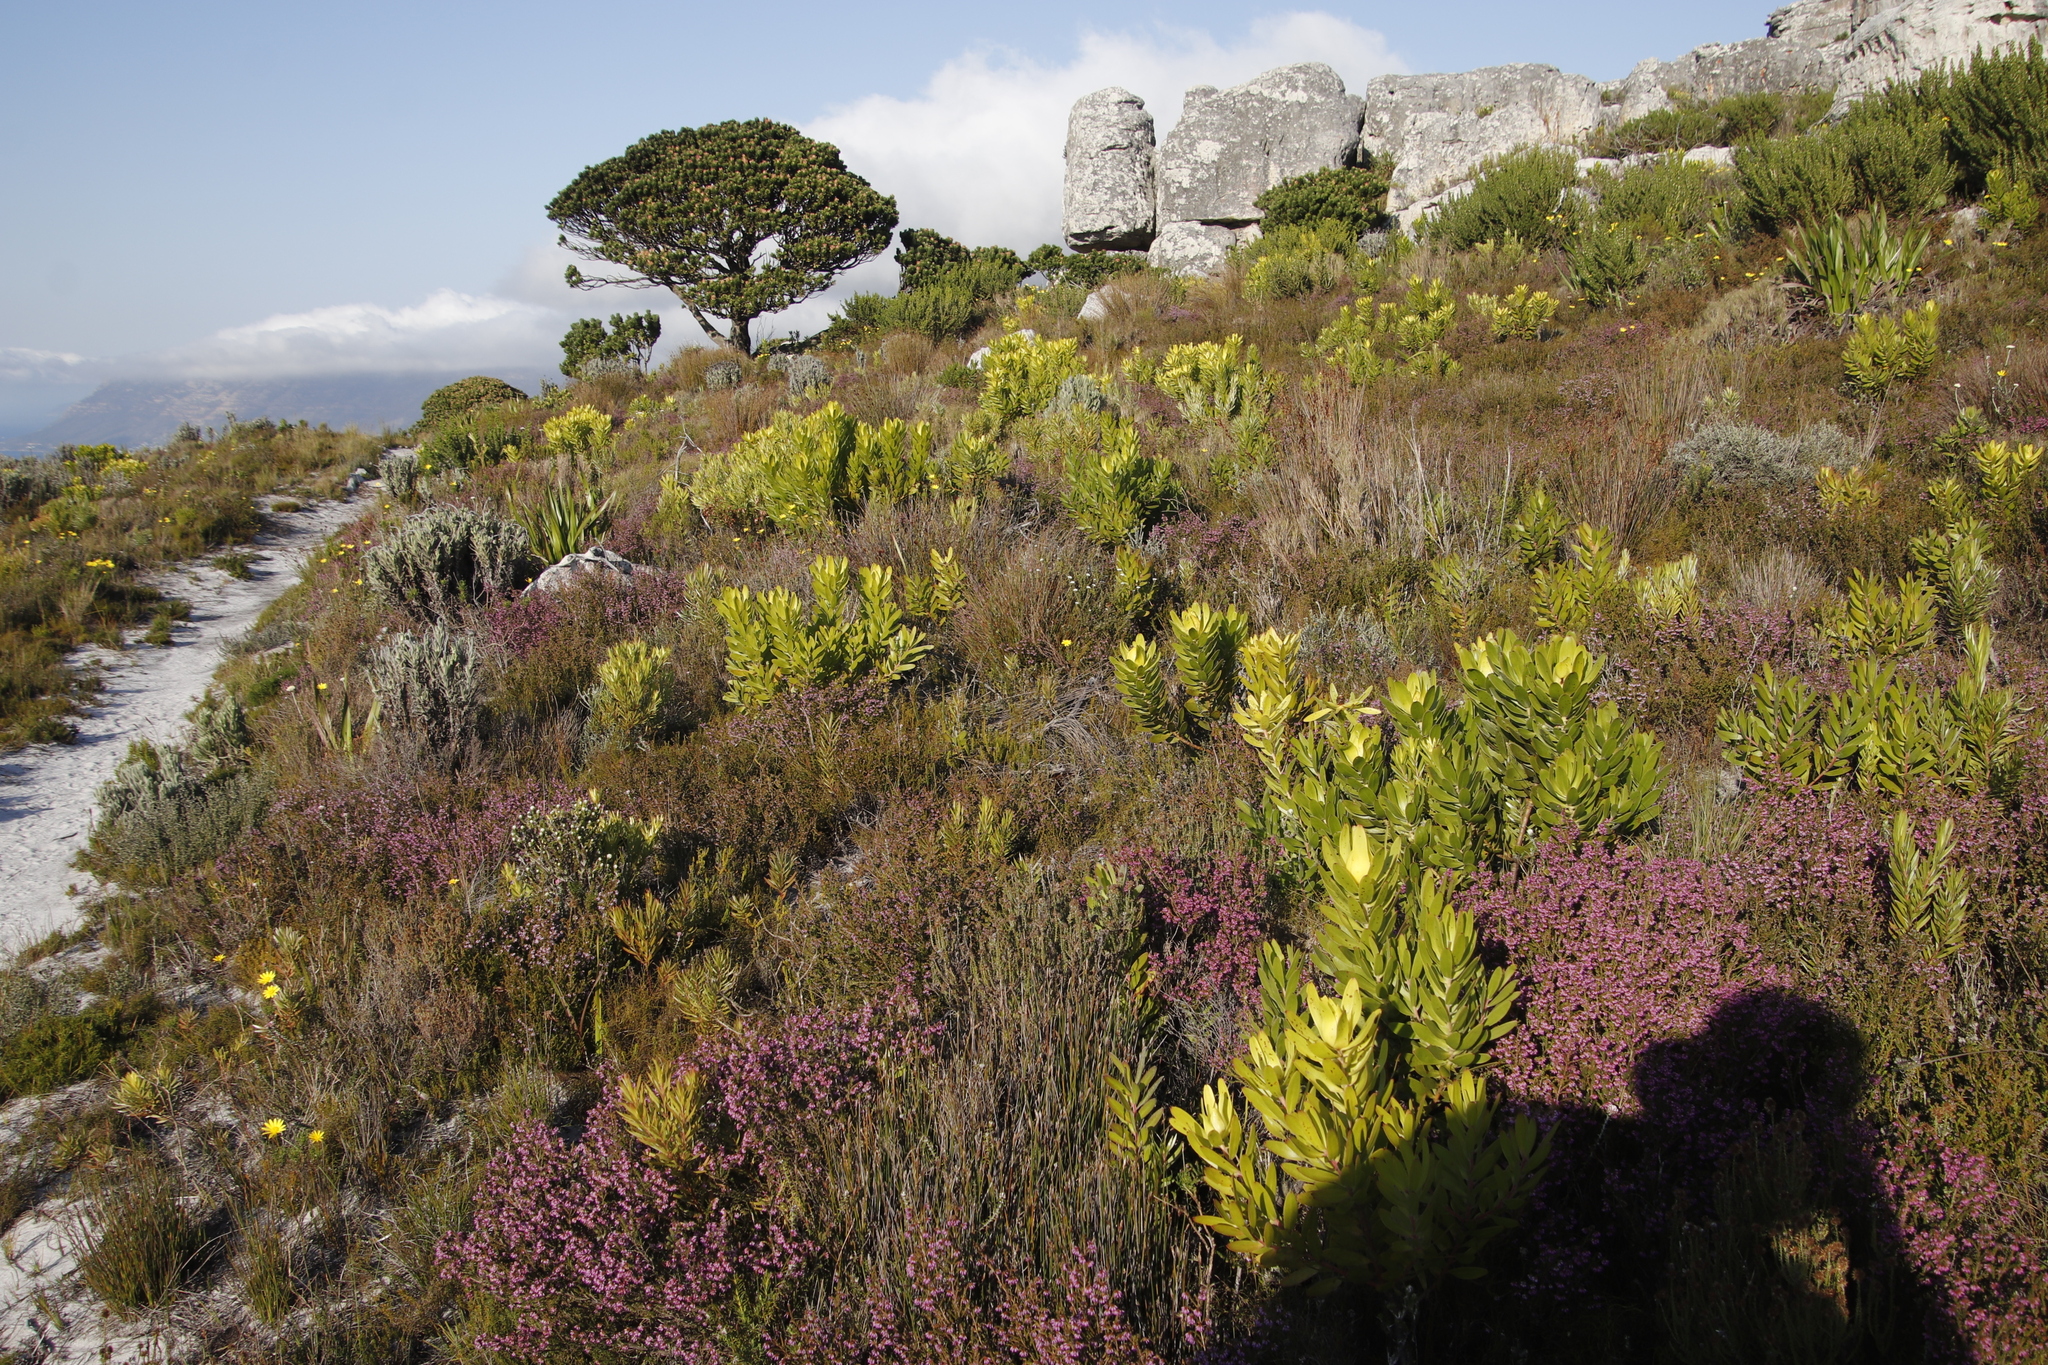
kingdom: Plantae
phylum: Tracheophyta
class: Magnoliopsida
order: Proteales
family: Proteaceae
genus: Leucadendron
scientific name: Leucadendron laureolum
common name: Golden sunshinebush
